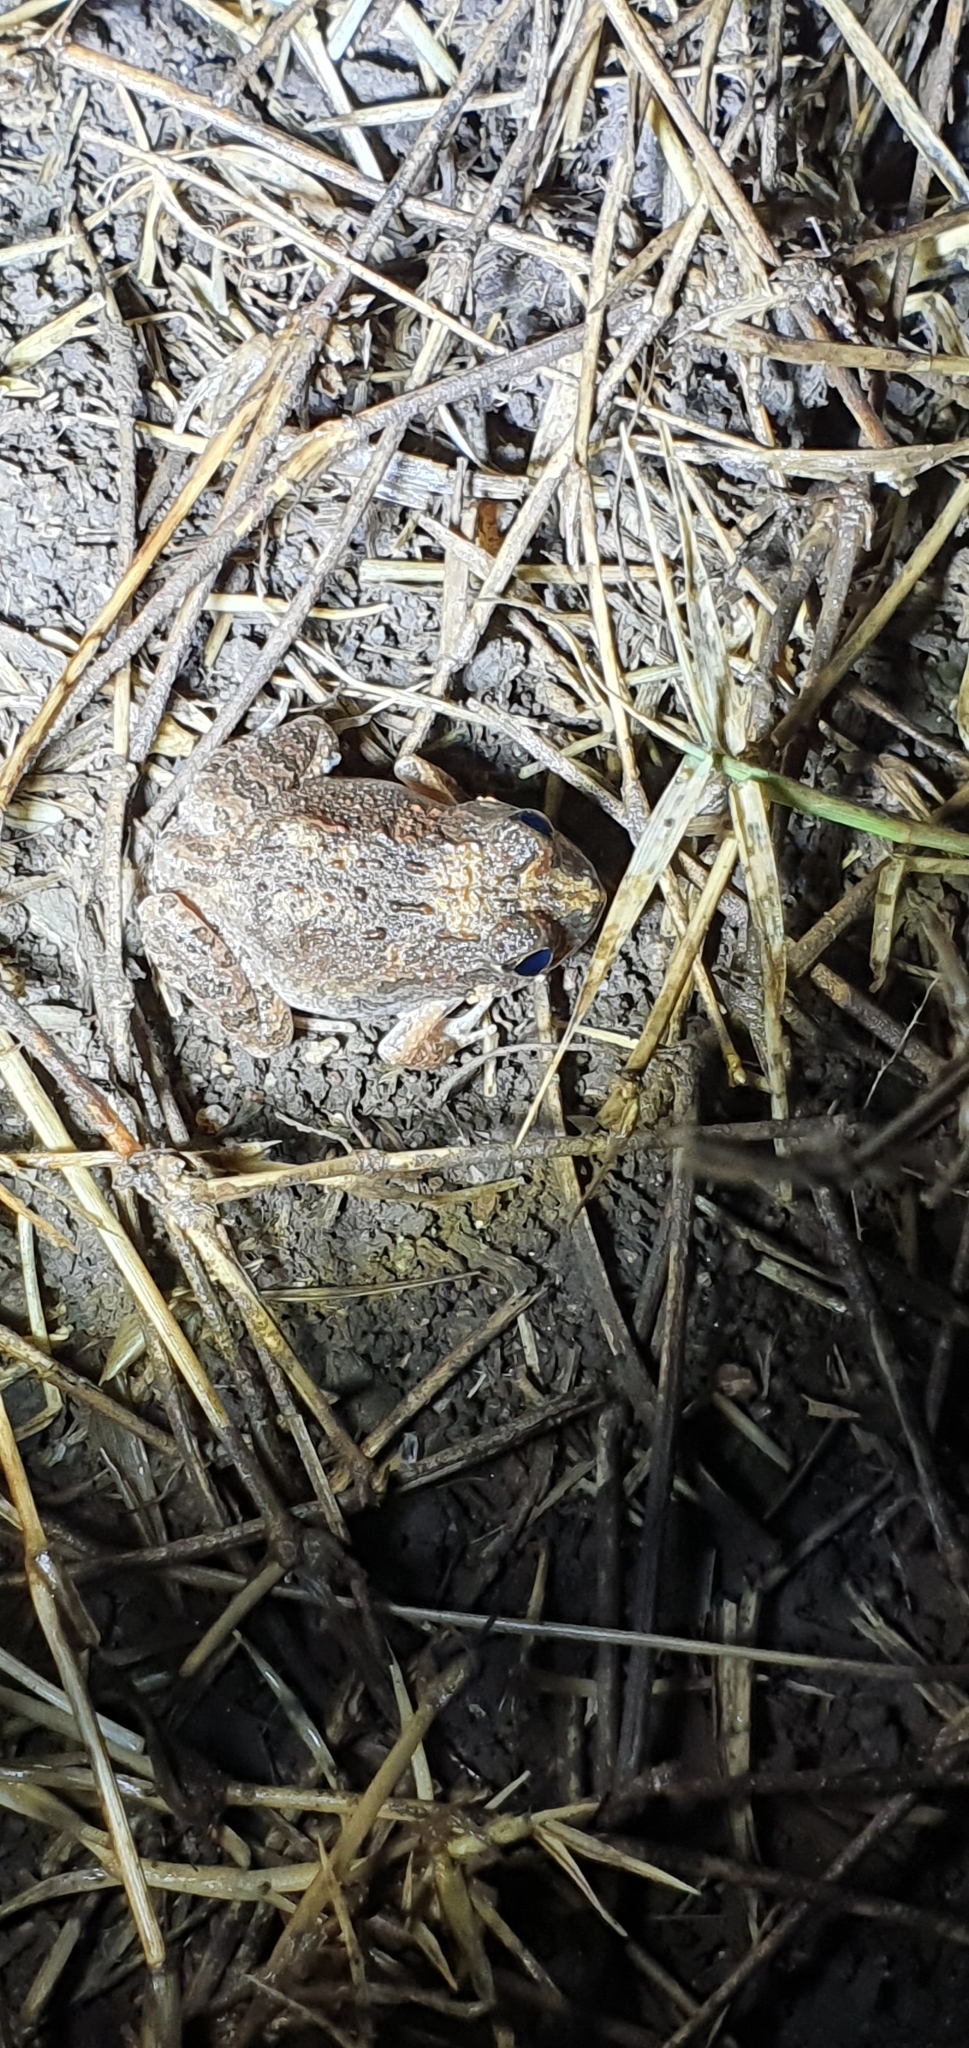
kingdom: Animalia
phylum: Chordata
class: Amphibia
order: Anura
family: Limnodynastidae
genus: Platyplectrum
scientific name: Platyplectrum ornatum
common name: Ornate burrowing frog
